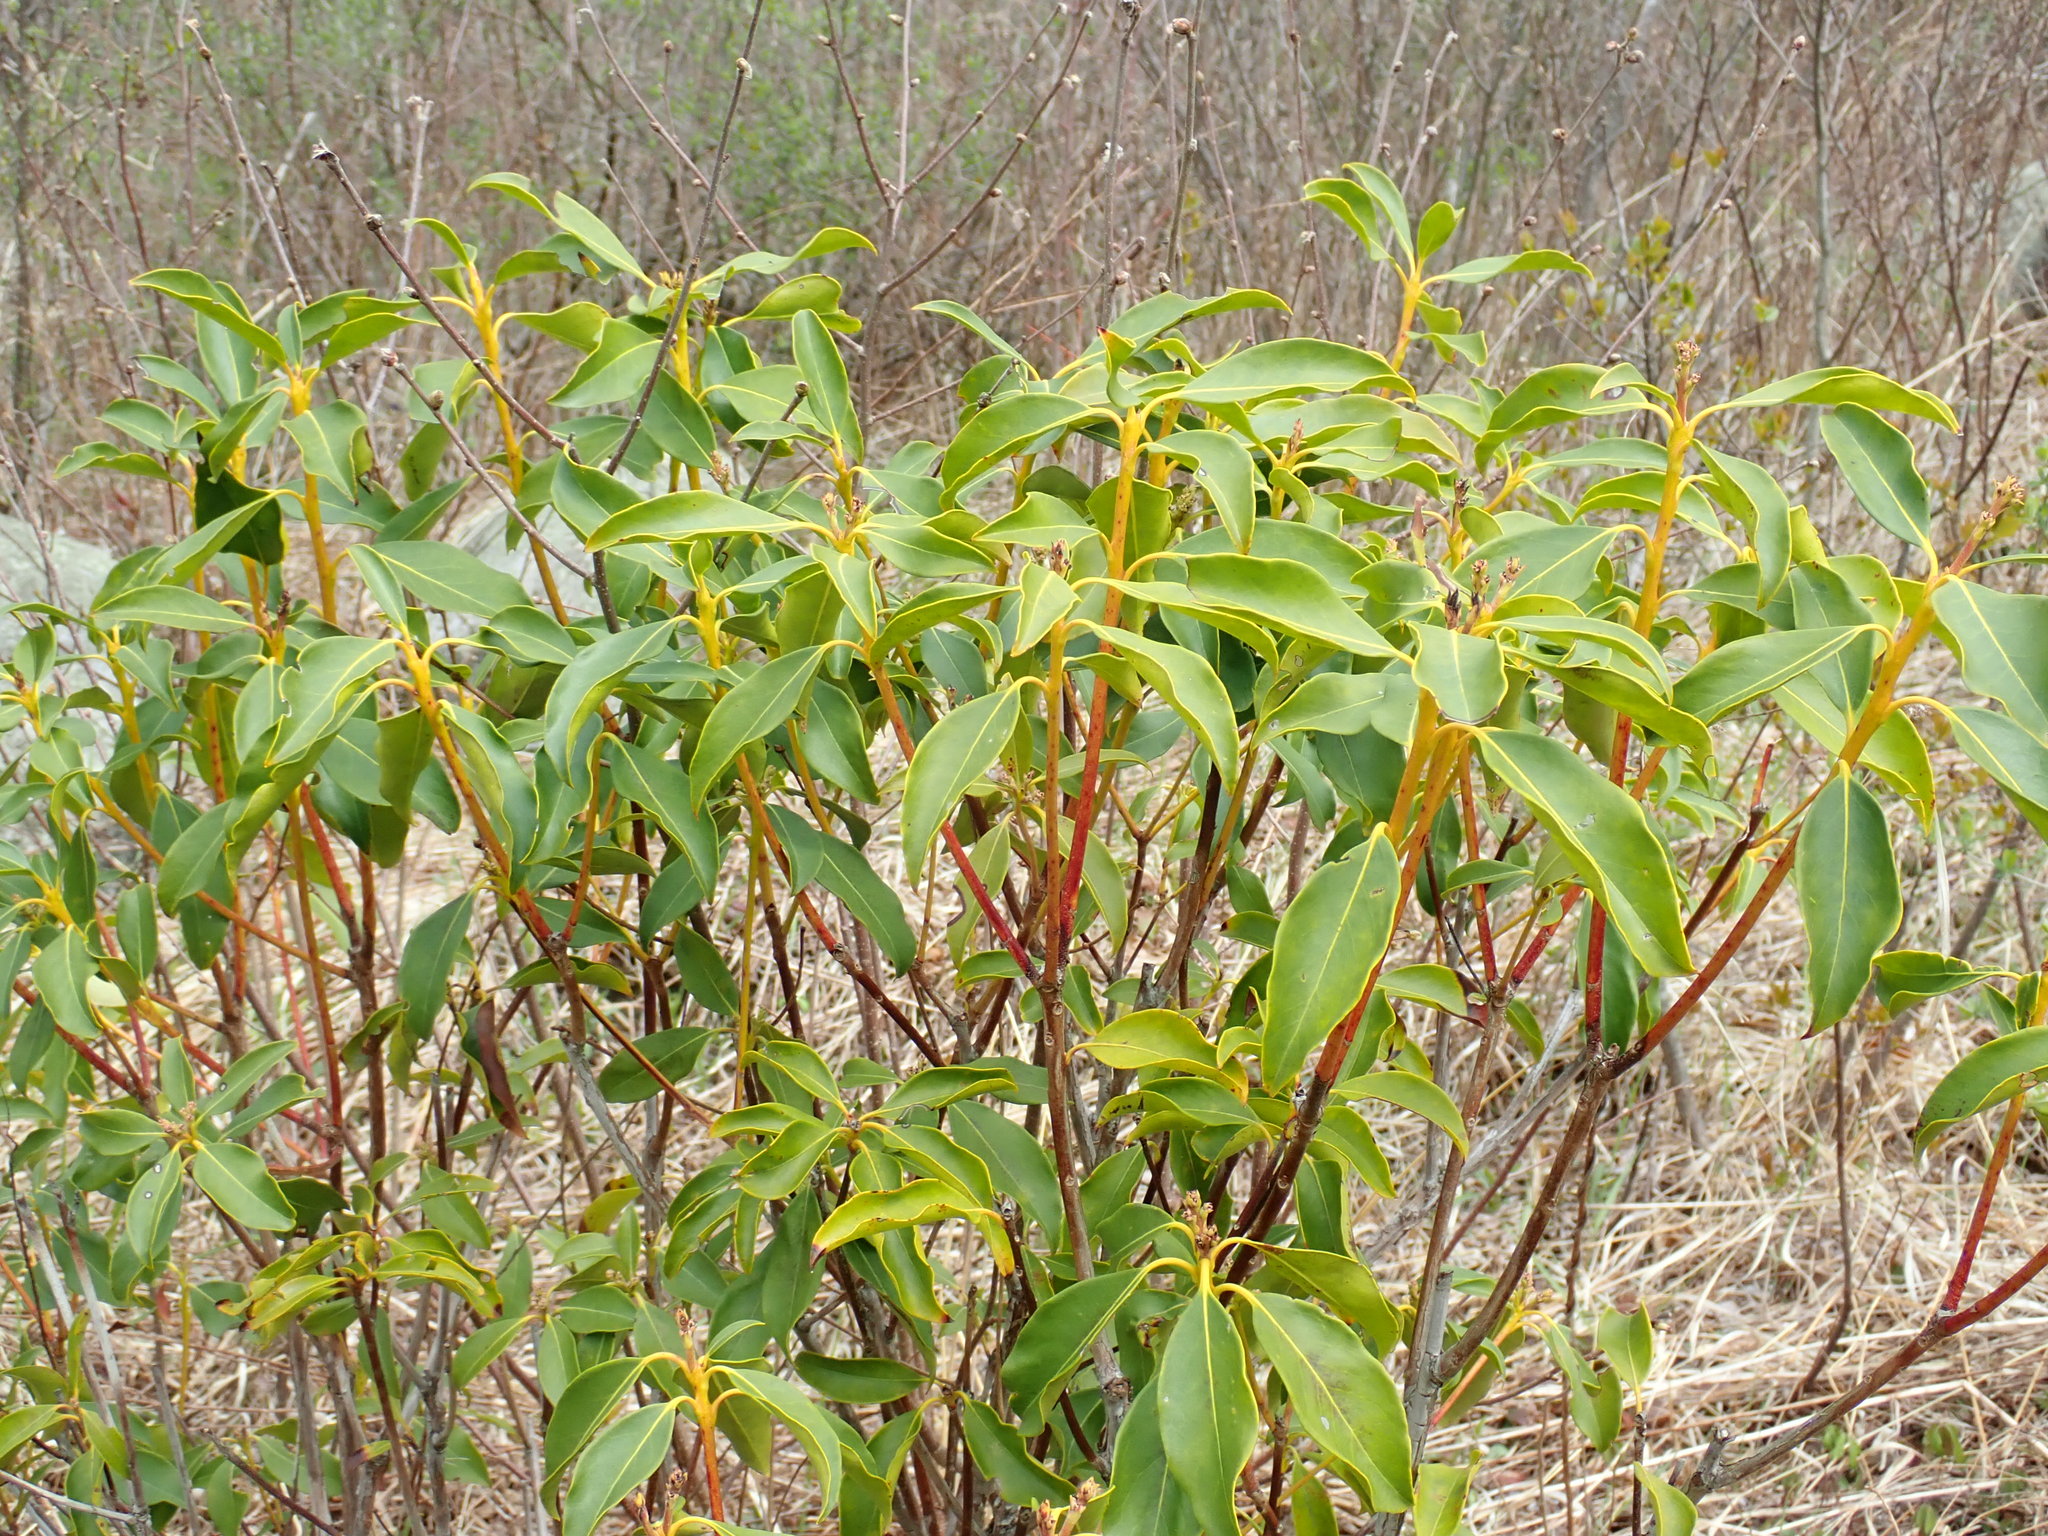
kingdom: Plantae
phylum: Tracheophyta
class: Magnoliopsida
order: Ericales
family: Ericaceae
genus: Kalmia
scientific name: Kalmia latifolia
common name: Mountain-laurel
